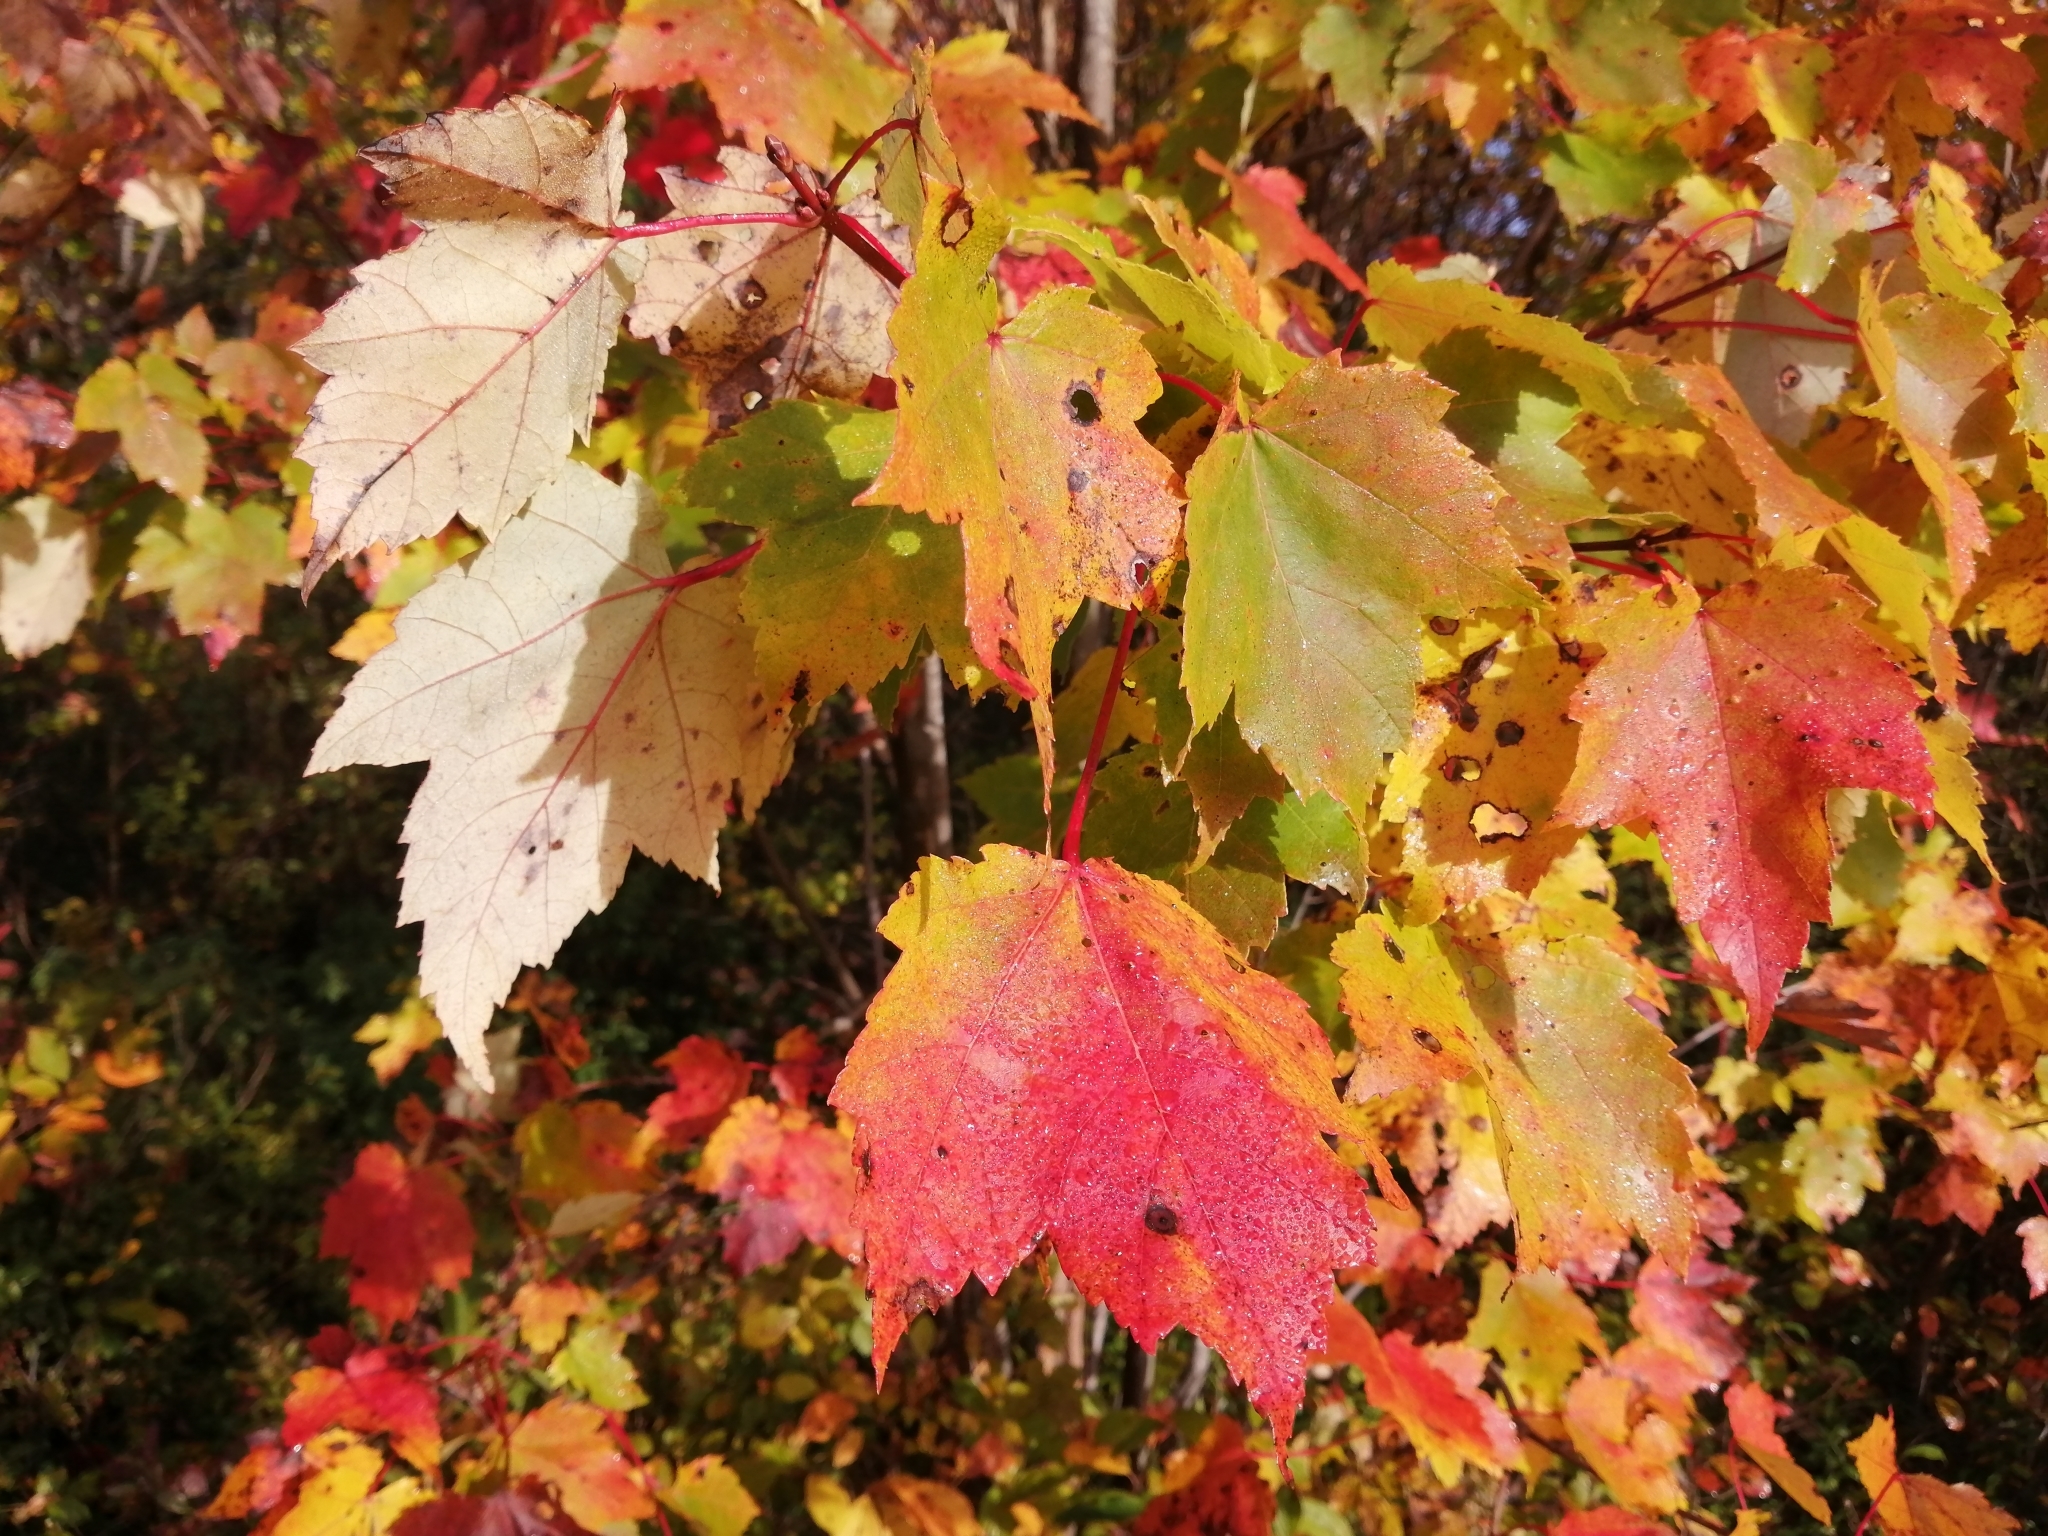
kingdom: Plantae
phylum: Tracheophyta
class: Magnoliopsida
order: Sapindales
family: Sapindaceae
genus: Acer
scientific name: Acer rubrum
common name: Red maple
